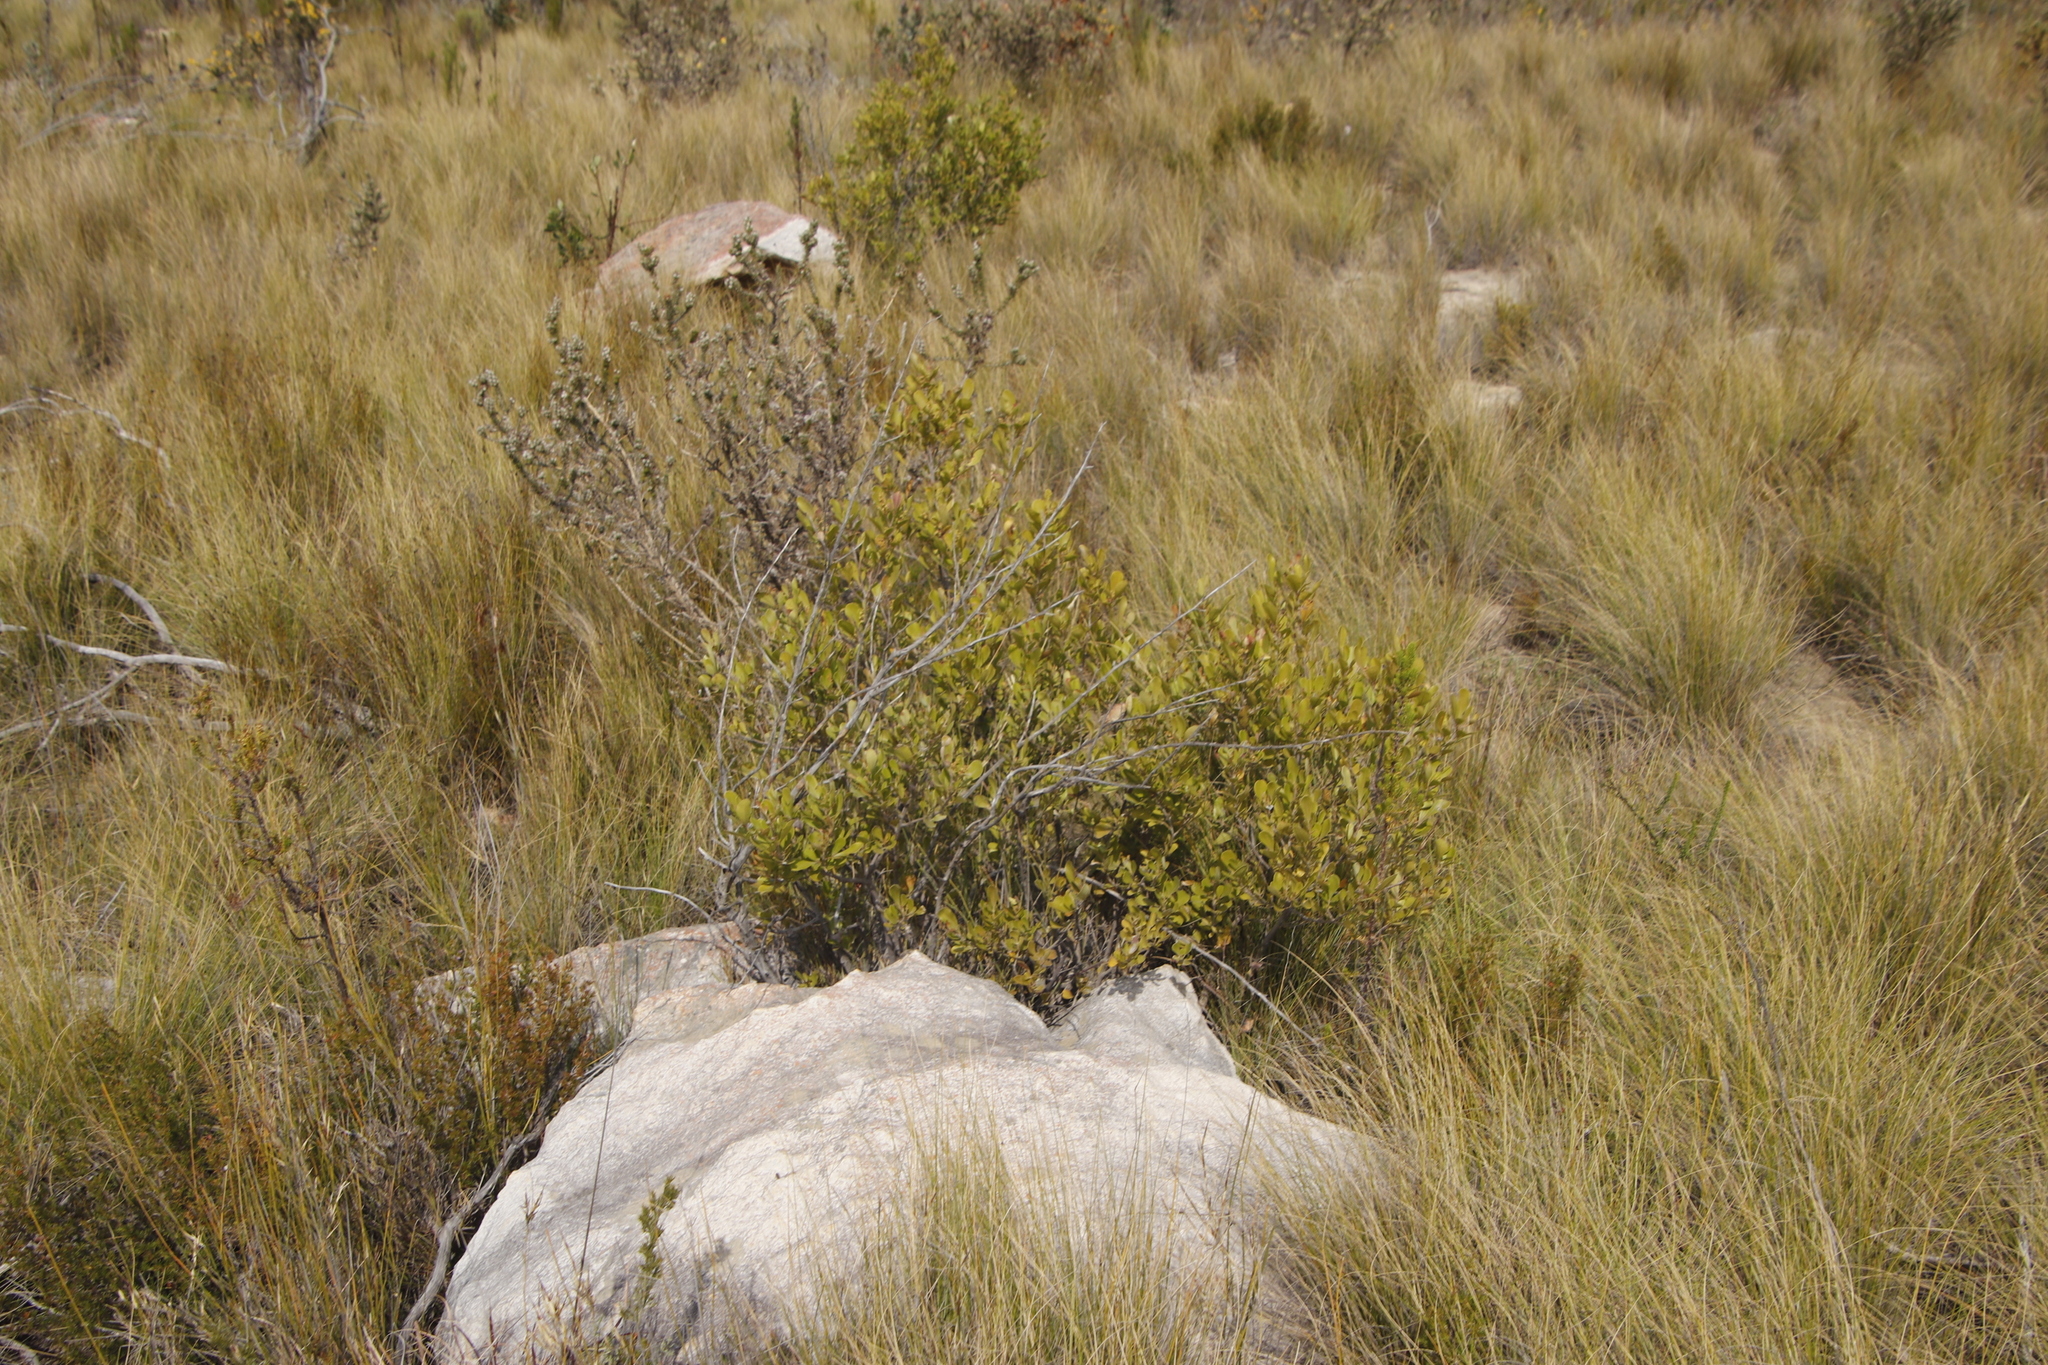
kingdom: Plantae
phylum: Tracheophyta
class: Magnoliopsida
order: Sapindales
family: Anacardiaceae
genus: Searsia
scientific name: Searsia pallens
